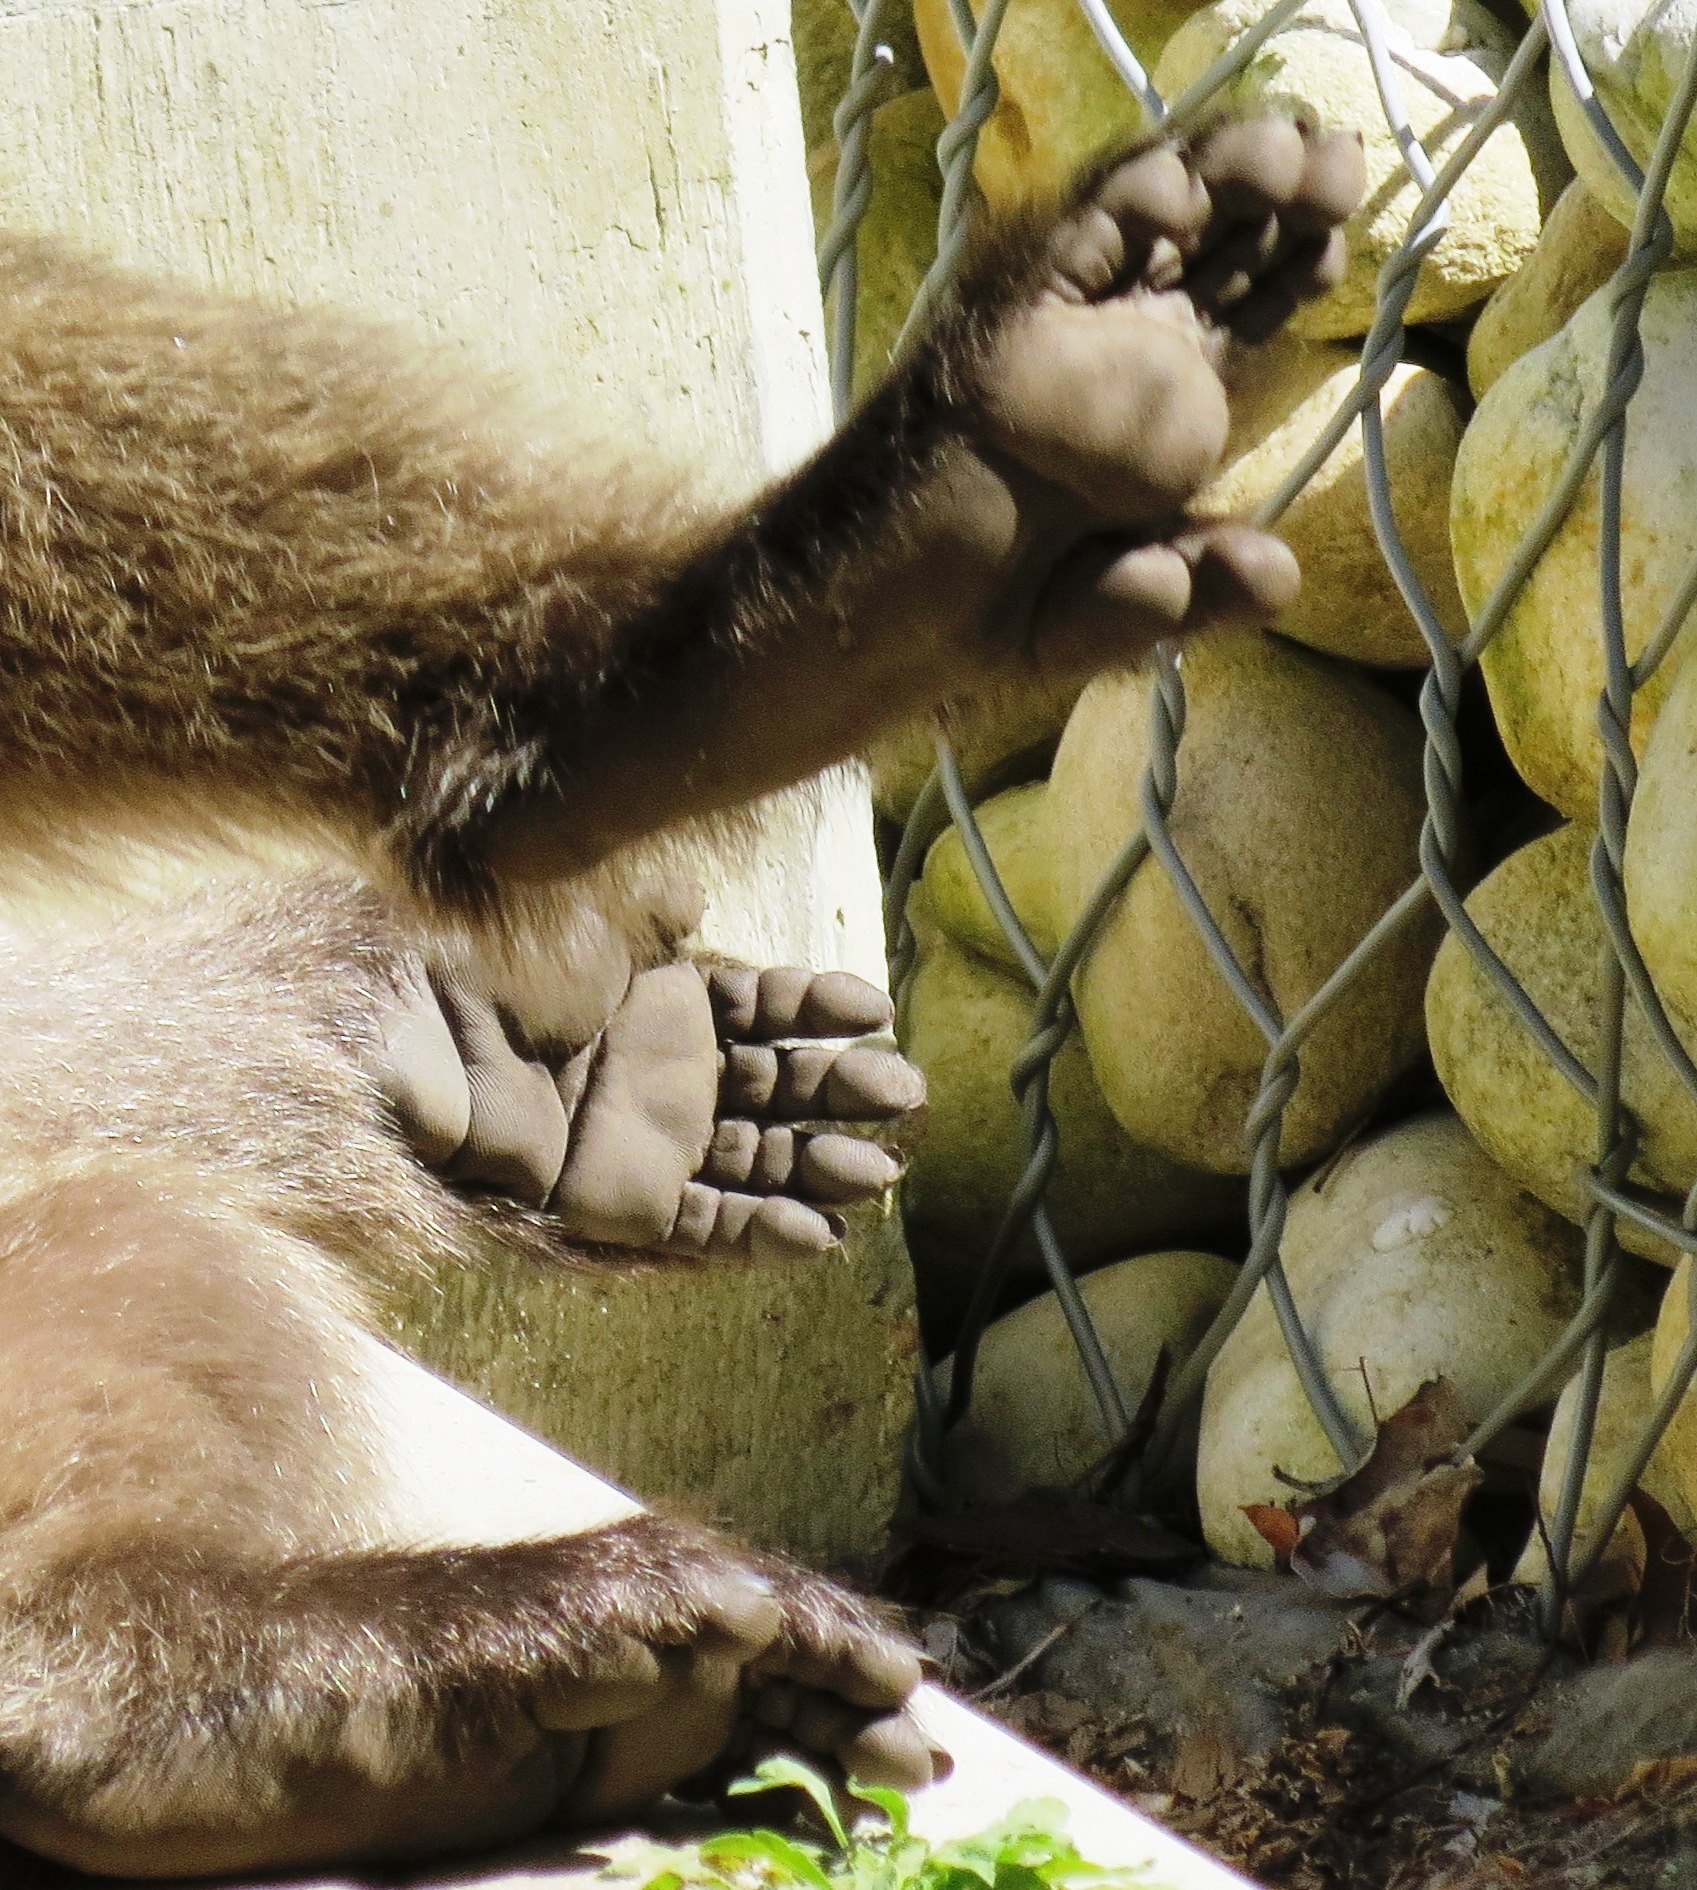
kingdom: Animalia
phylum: Chordata
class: Mammalia
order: Primates
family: Cercopithecidae
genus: Papio
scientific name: Papio ursinus
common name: Chacma baboon
